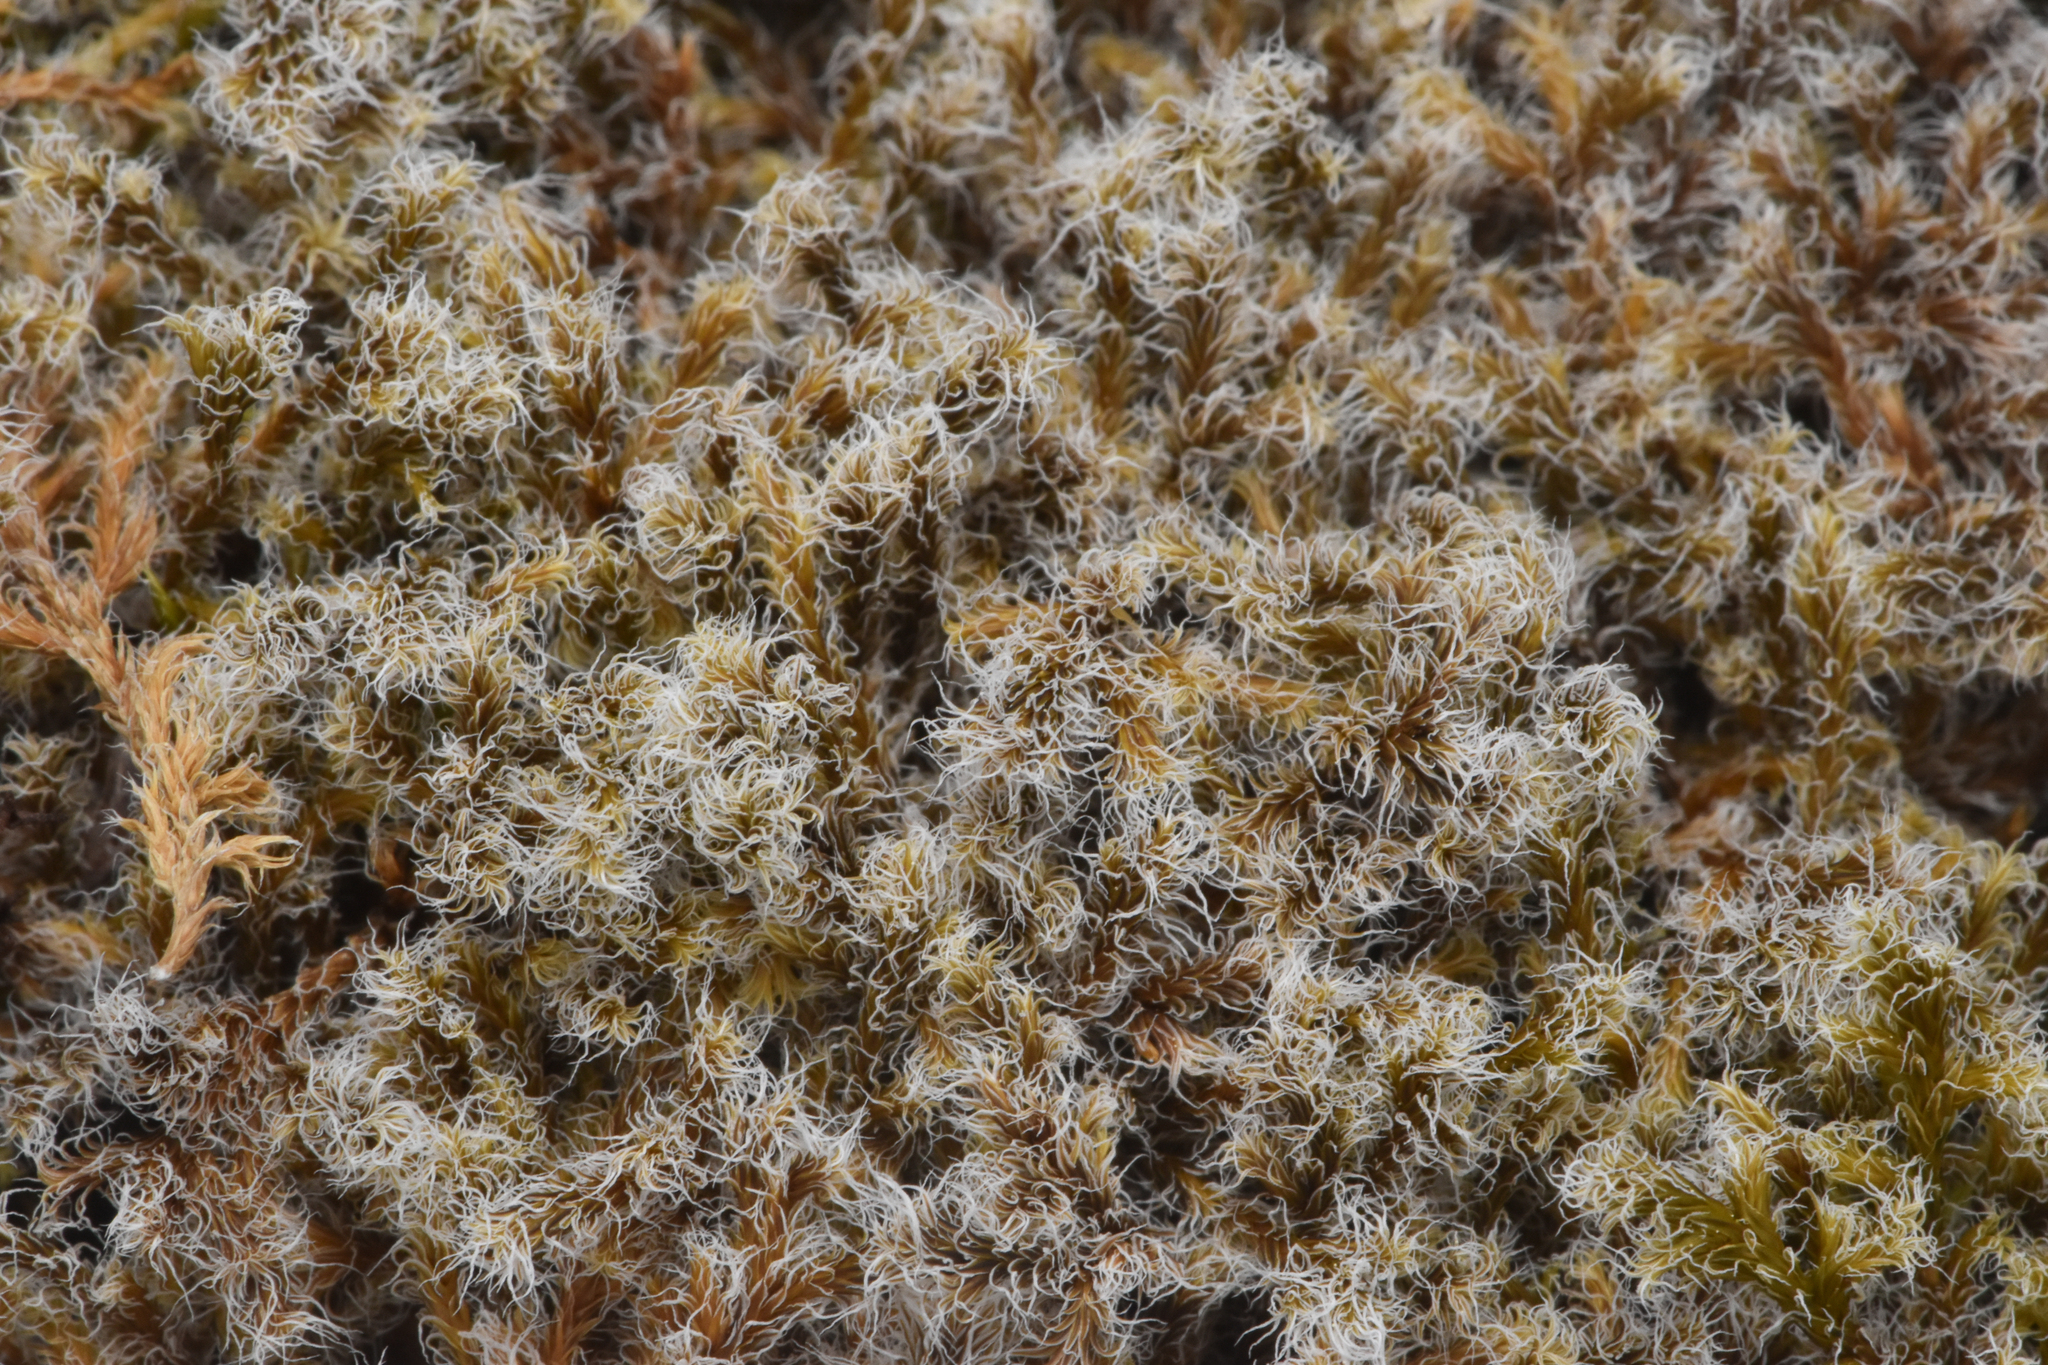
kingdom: Plantae
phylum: Bryophyta
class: Bryopsida
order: Grimmiales
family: Grimmiaceae
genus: Racomitrium
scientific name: Racomitrium lanuginosum
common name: Hoary rock moss
